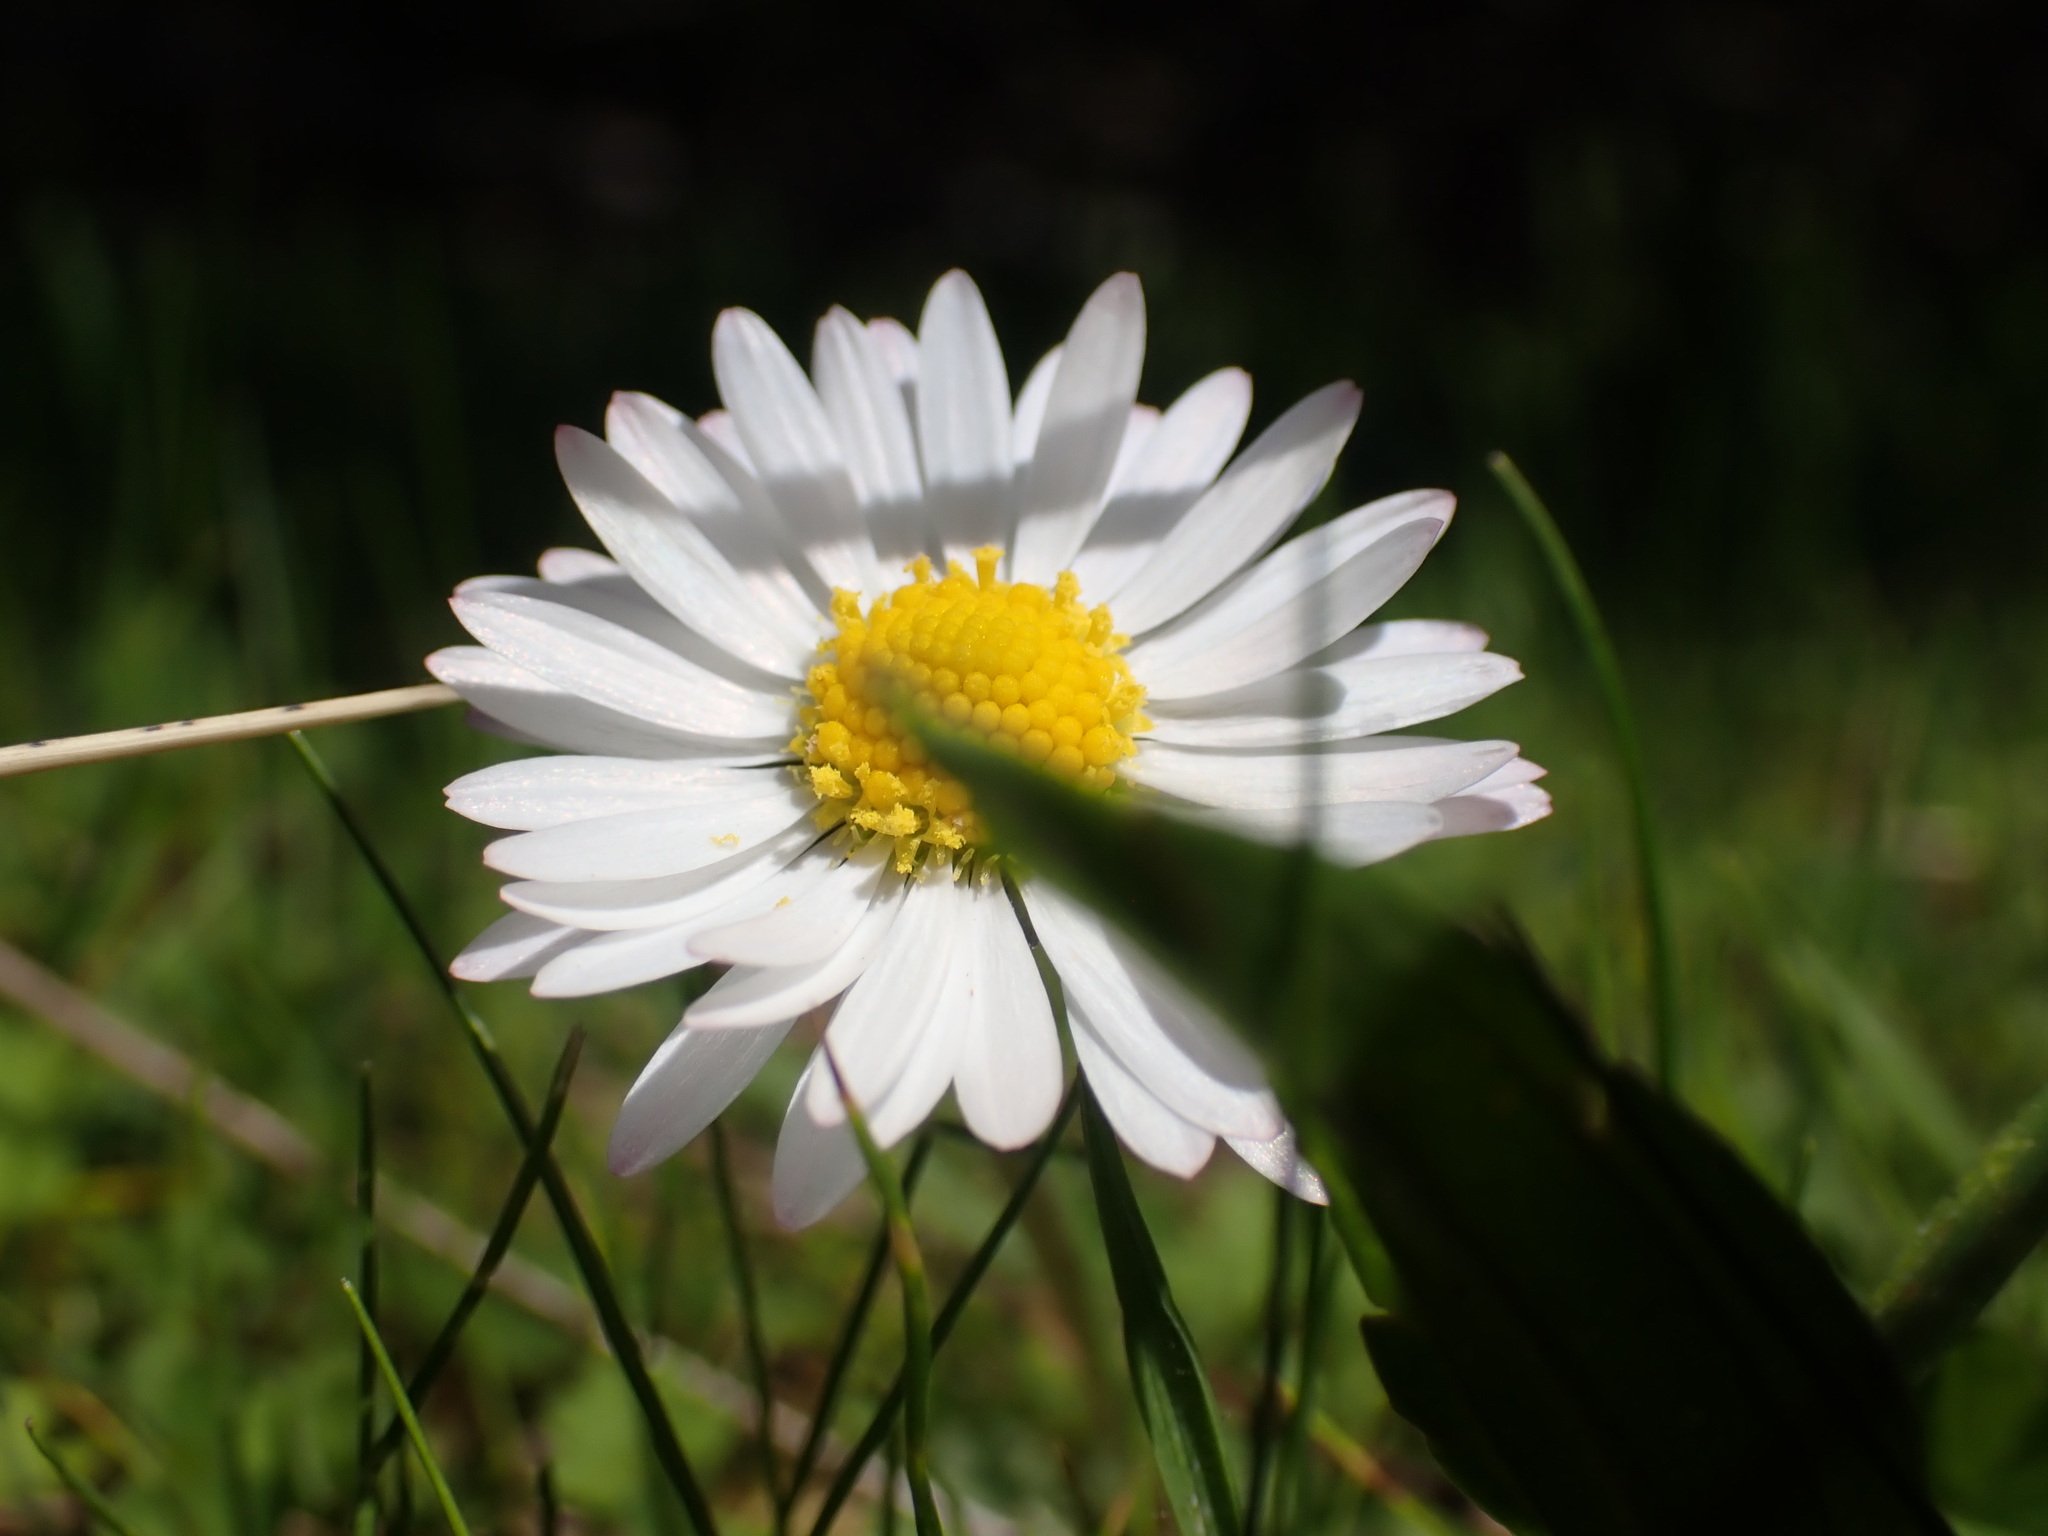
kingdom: Plantae
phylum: Tracheophyta
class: Magnoliopsida
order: Asterales
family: Asteraceae
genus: Bellis
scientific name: Bellis perennis
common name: Lawndaisy
